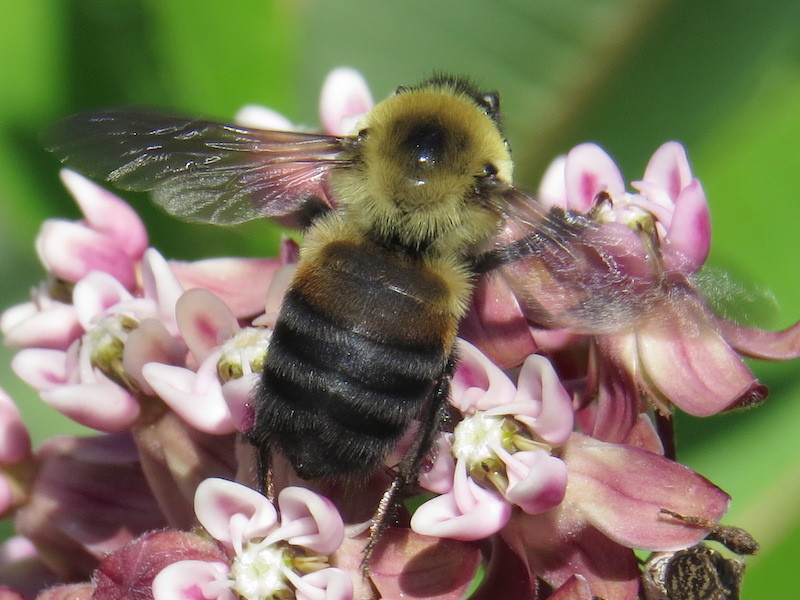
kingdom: Animalia
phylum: Arthropoda
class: Insecta
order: Hymenoptera
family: Apidae
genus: Bombus
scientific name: Bombus griseocollis
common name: Brown-belted bumble bee
